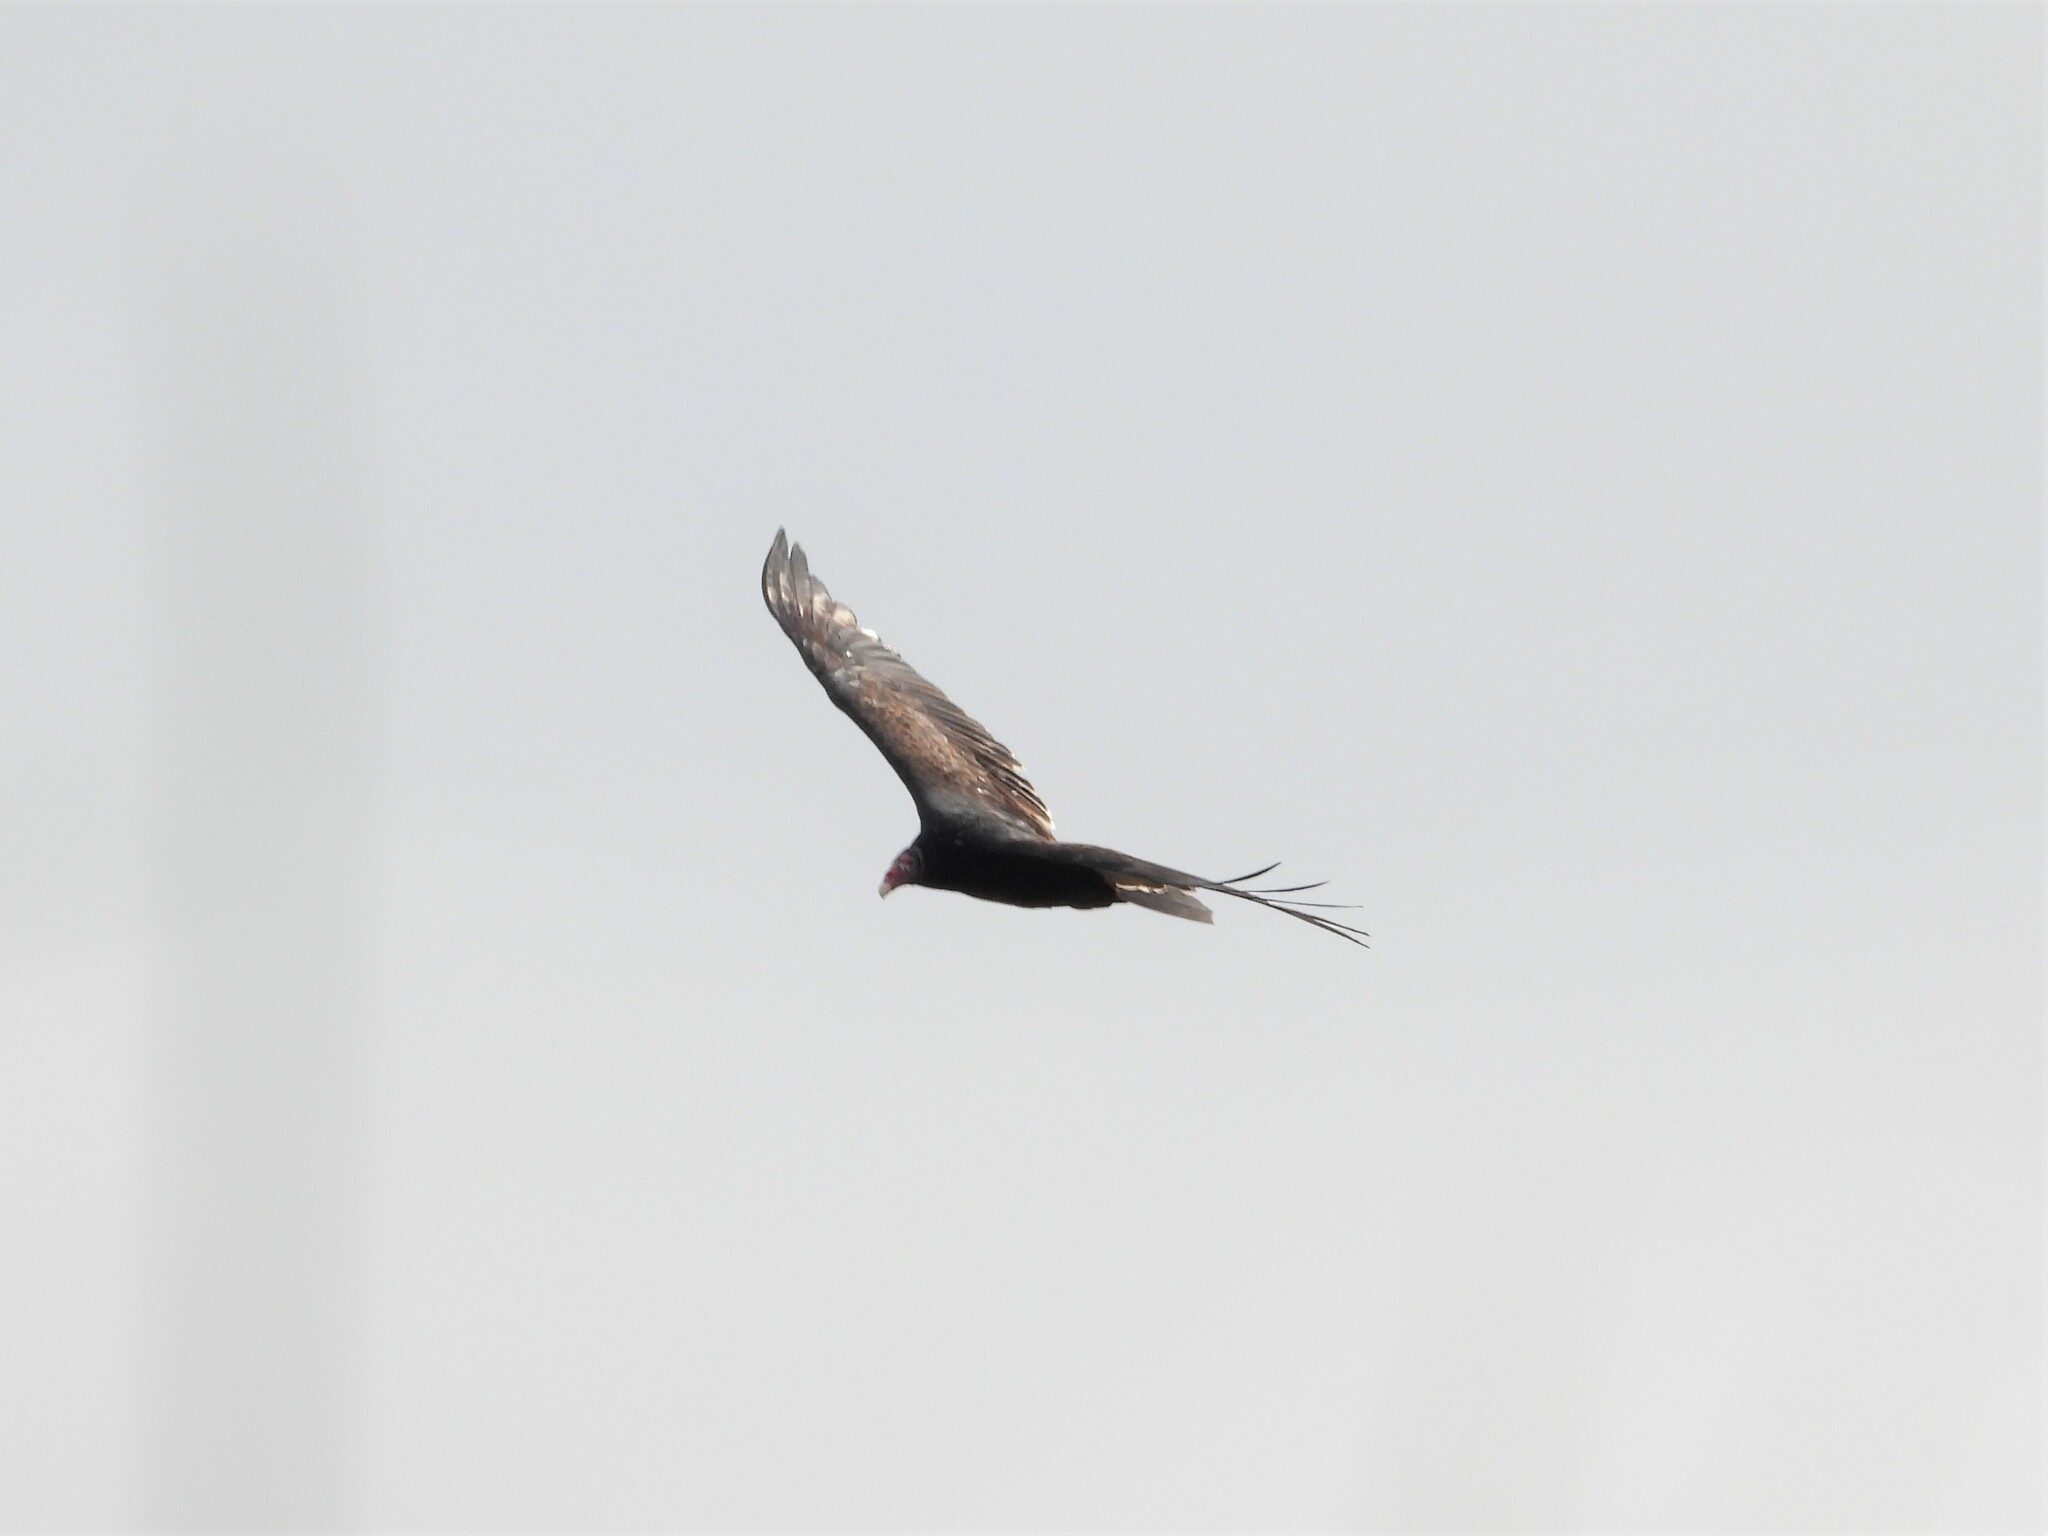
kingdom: Animalia
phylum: Chordata
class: Aves
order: Accipitriformes
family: Cathartidae
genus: Cathartes
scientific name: Cathartes aura
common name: Turkey vulture
